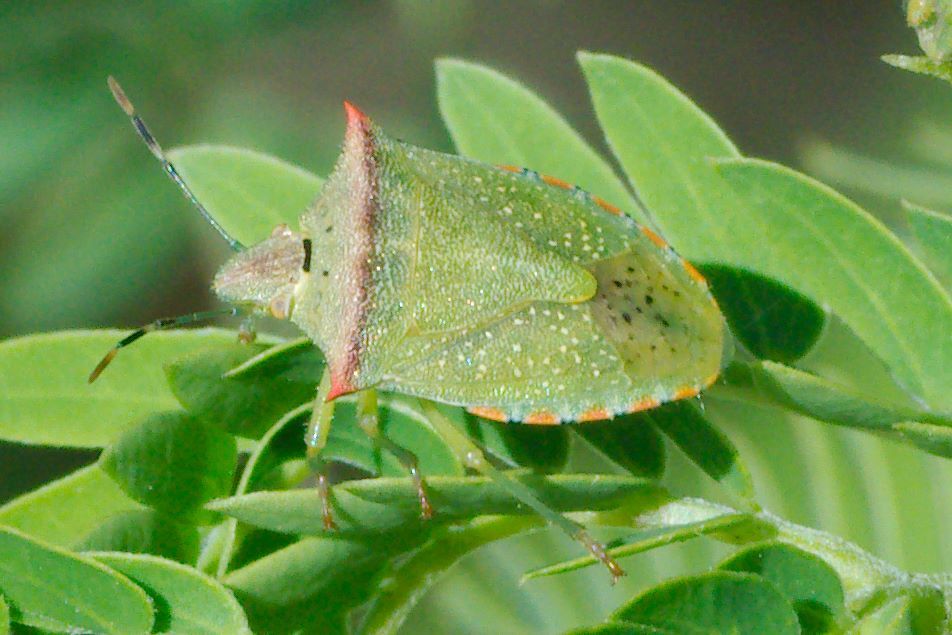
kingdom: Animalia
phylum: Arthropoda
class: Insecta
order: Hemiptera
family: Pentatomidae
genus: Thyanta
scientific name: Thyanta perditor
